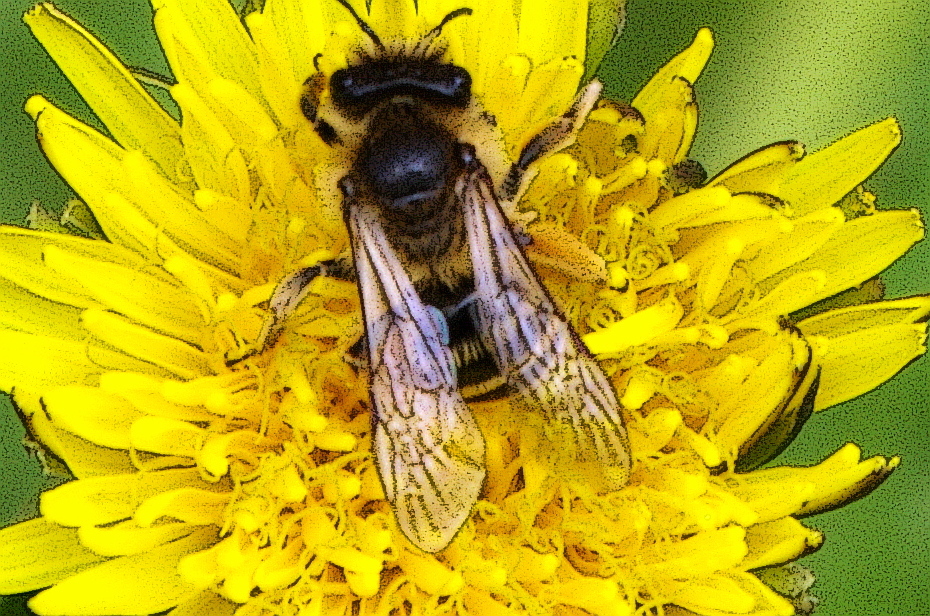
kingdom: Animalia
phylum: Arthropoda
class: Insecta
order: Hymenoptera
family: Andrenidae
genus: Andrena
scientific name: Andrena flavipes
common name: Yellow-legged mining bee
